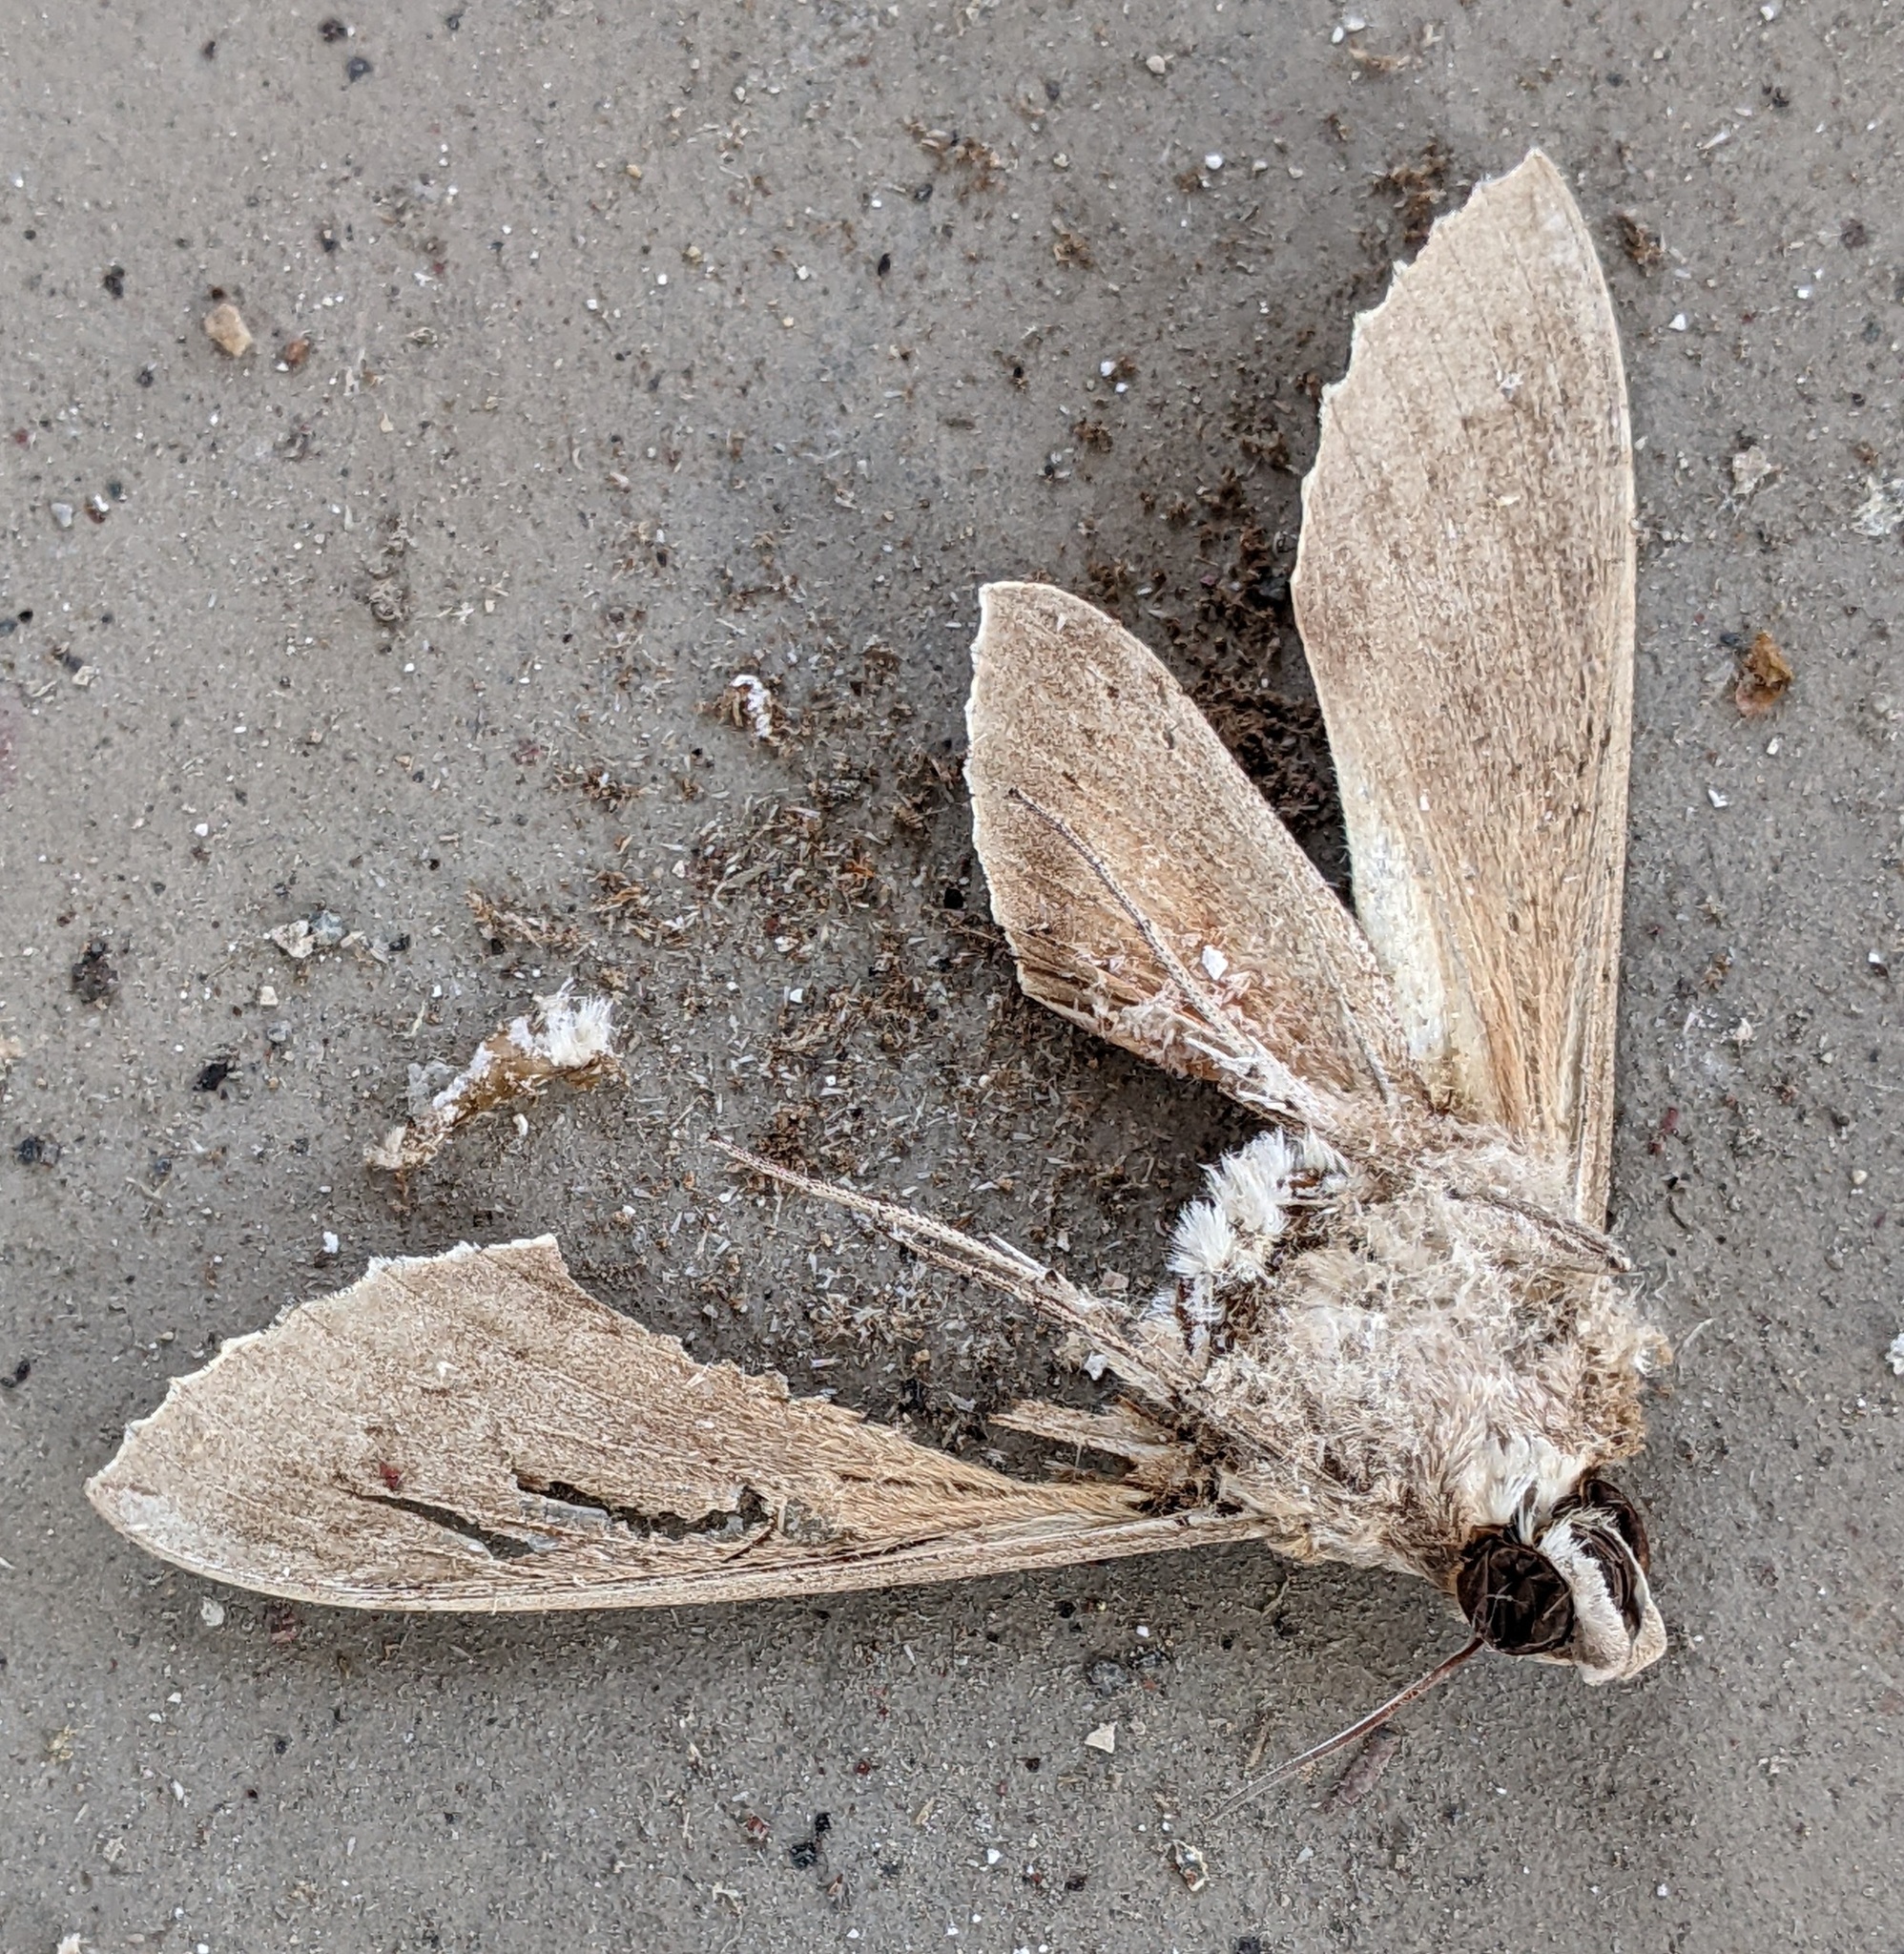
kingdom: Animalia
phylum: Arthropoda
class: Insecta
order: Lepidoptera
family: Sphingidae
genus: Erinnyis
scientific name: Erinnyis ello
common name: Ello sphinx
